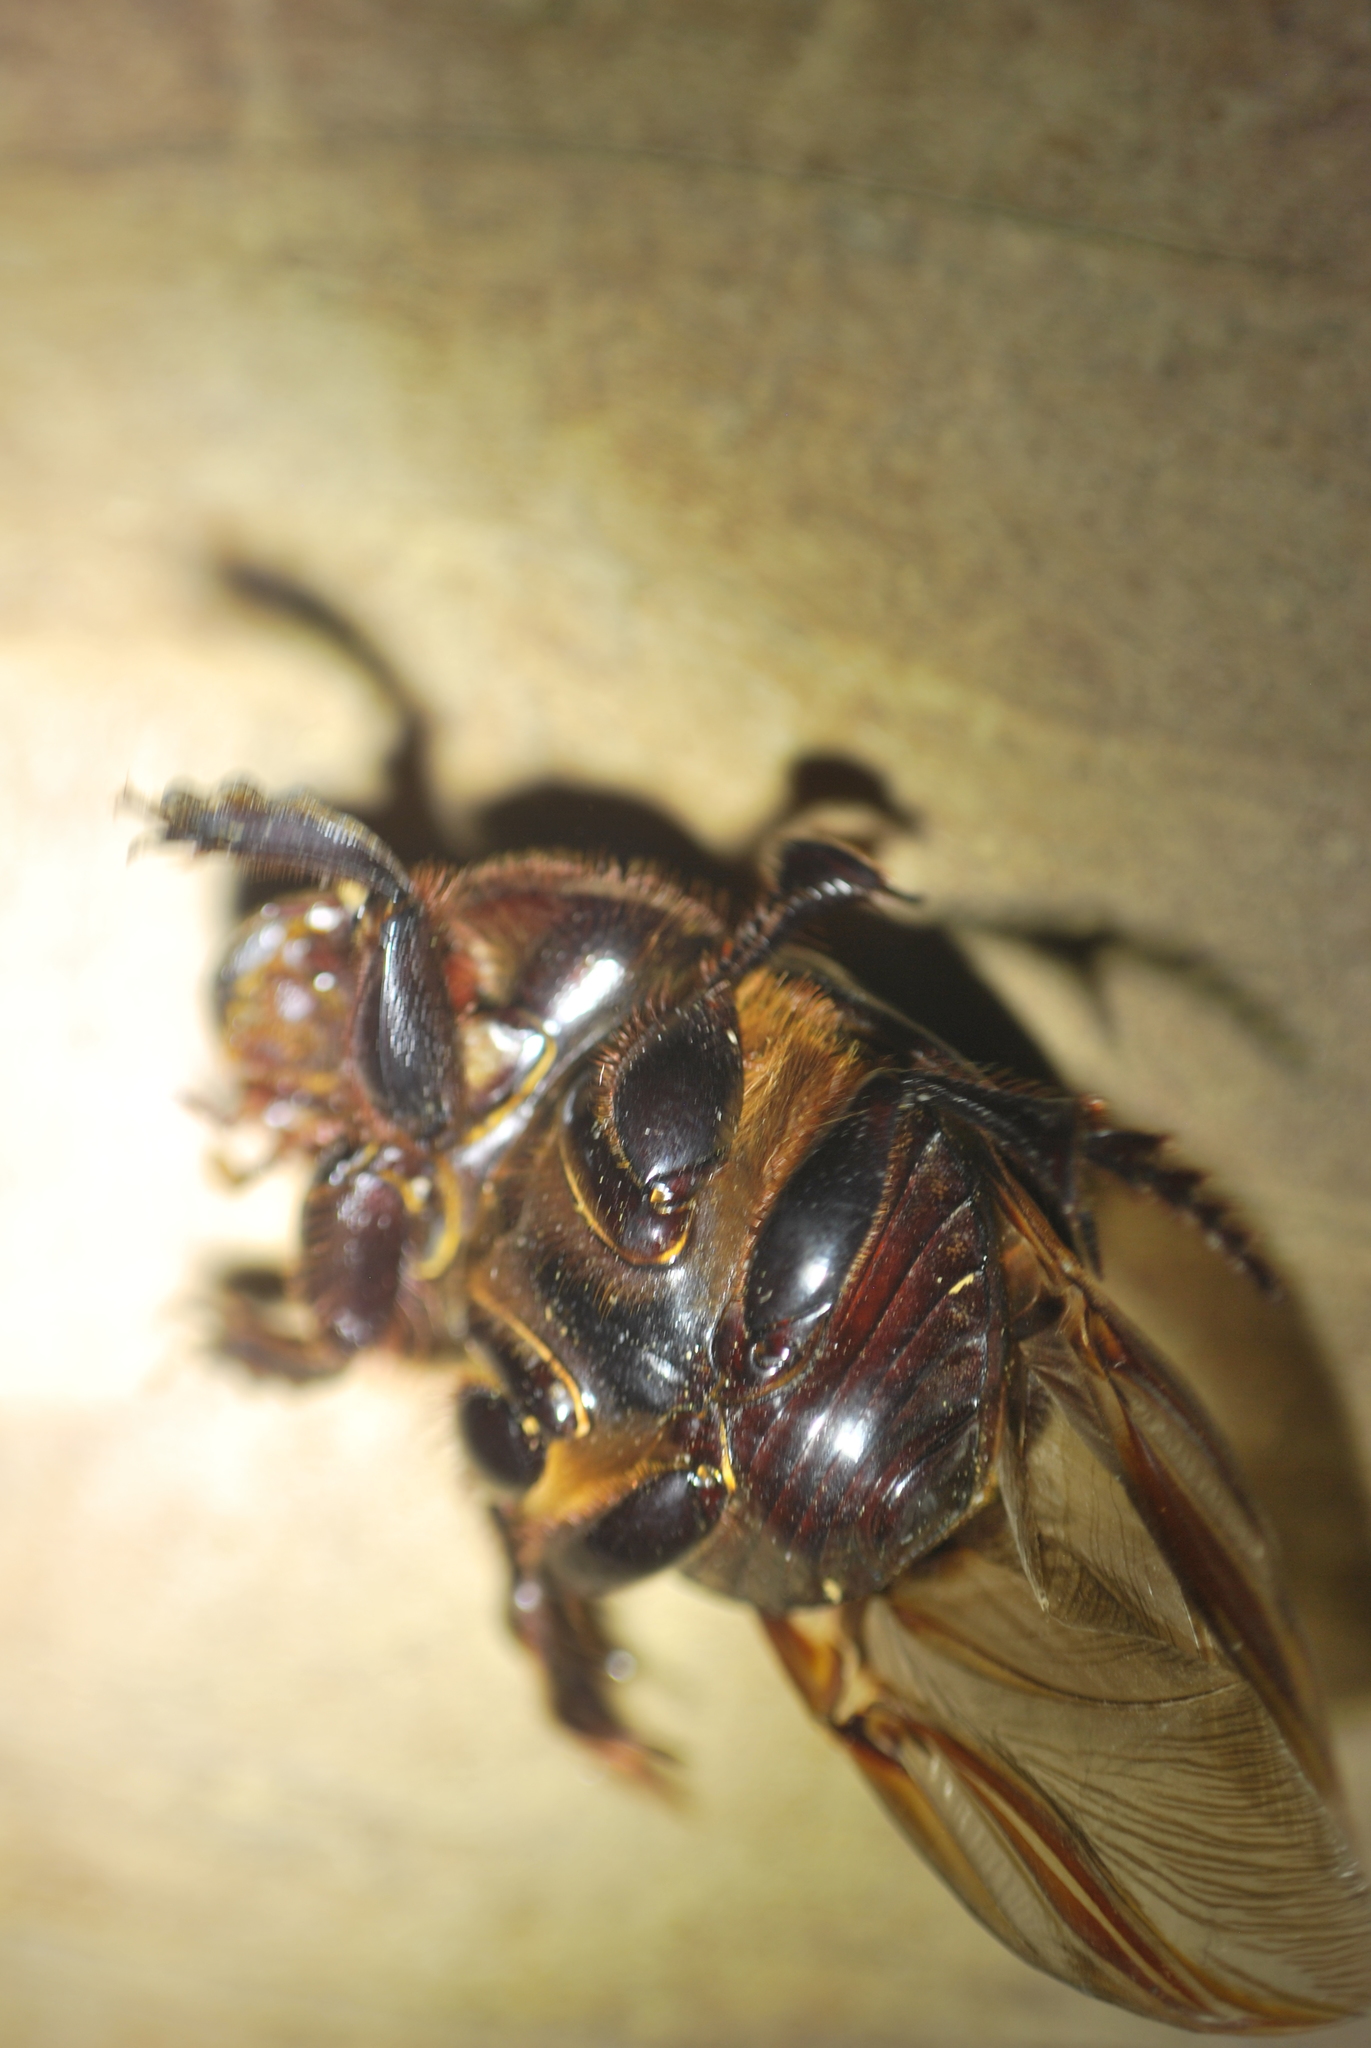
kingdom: Animalia
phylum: Arthropoda
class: Insecta
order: Coleoptera
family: Scarabaeidae
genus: Dichotomius
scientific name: Dichotomius carolinus
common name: Carolina copris
